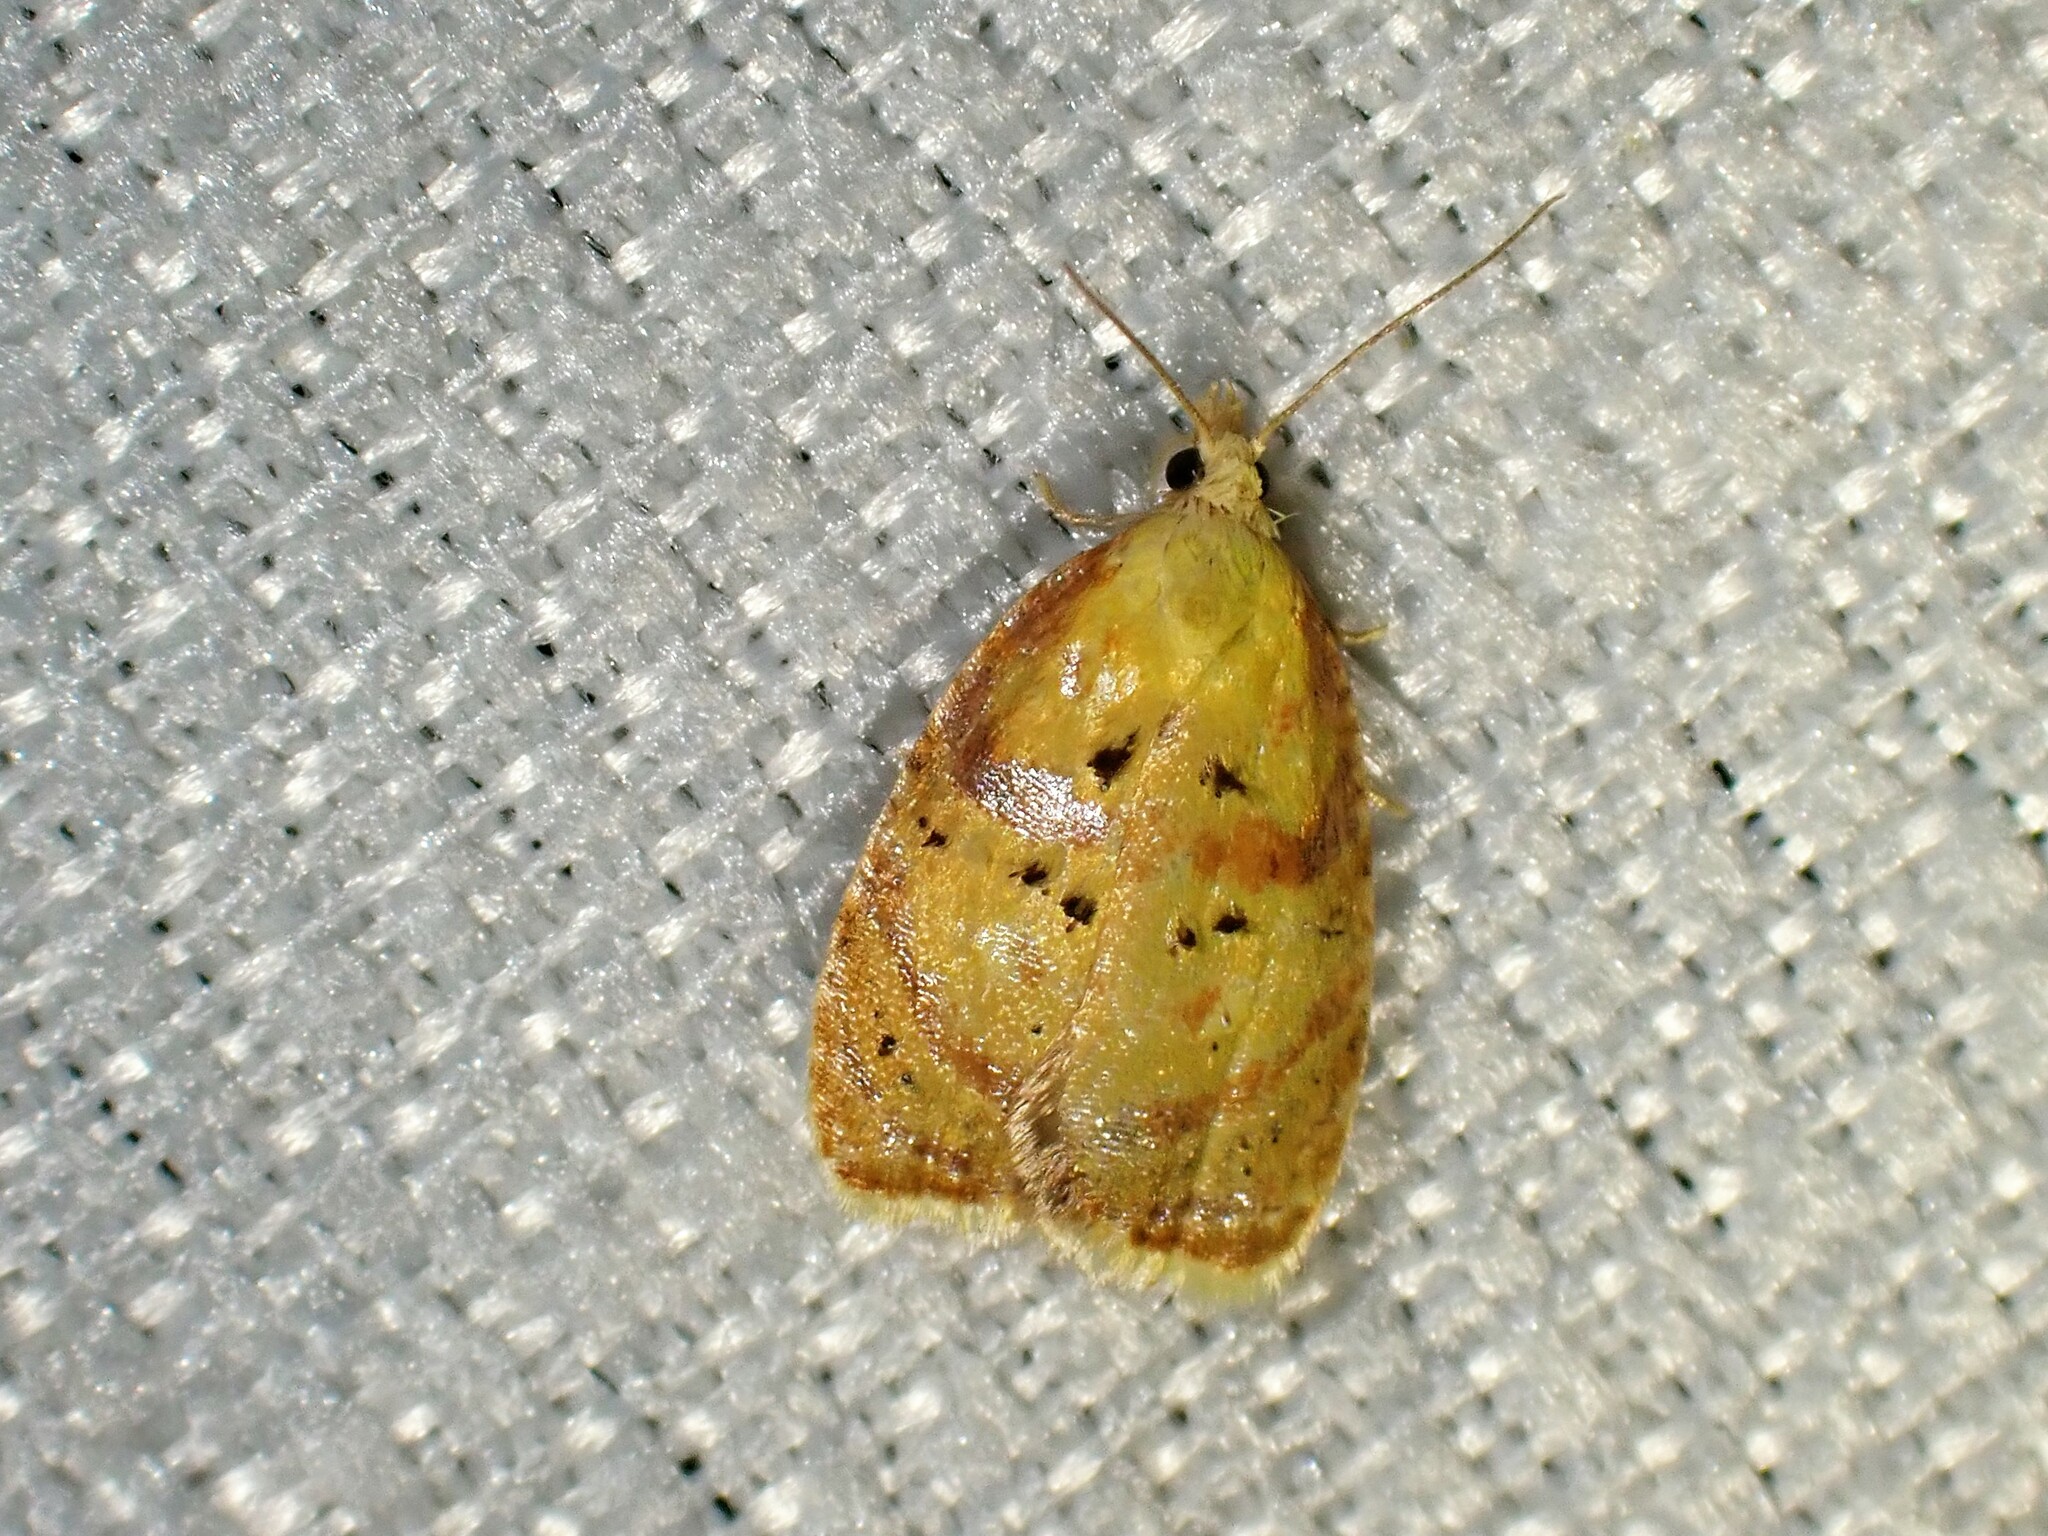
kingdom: Animalia
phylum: Arthropoda
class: Insecta
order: Lepidoptera
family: Tortricidae
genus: Acleris
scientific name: Acleris curvalana
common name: Blueberry leaftier moth
